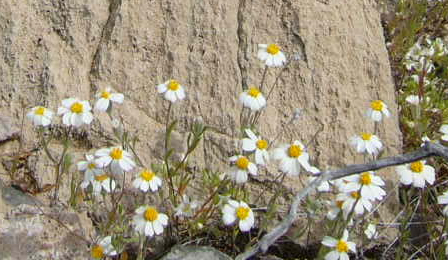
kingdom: Plantae
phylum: Tracheophyta
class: Magnoliopsida
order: Asterales
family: Asteraceae
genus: Eriophyllum
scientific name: Eriophyllum lanosum
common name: White easter-bonnets
